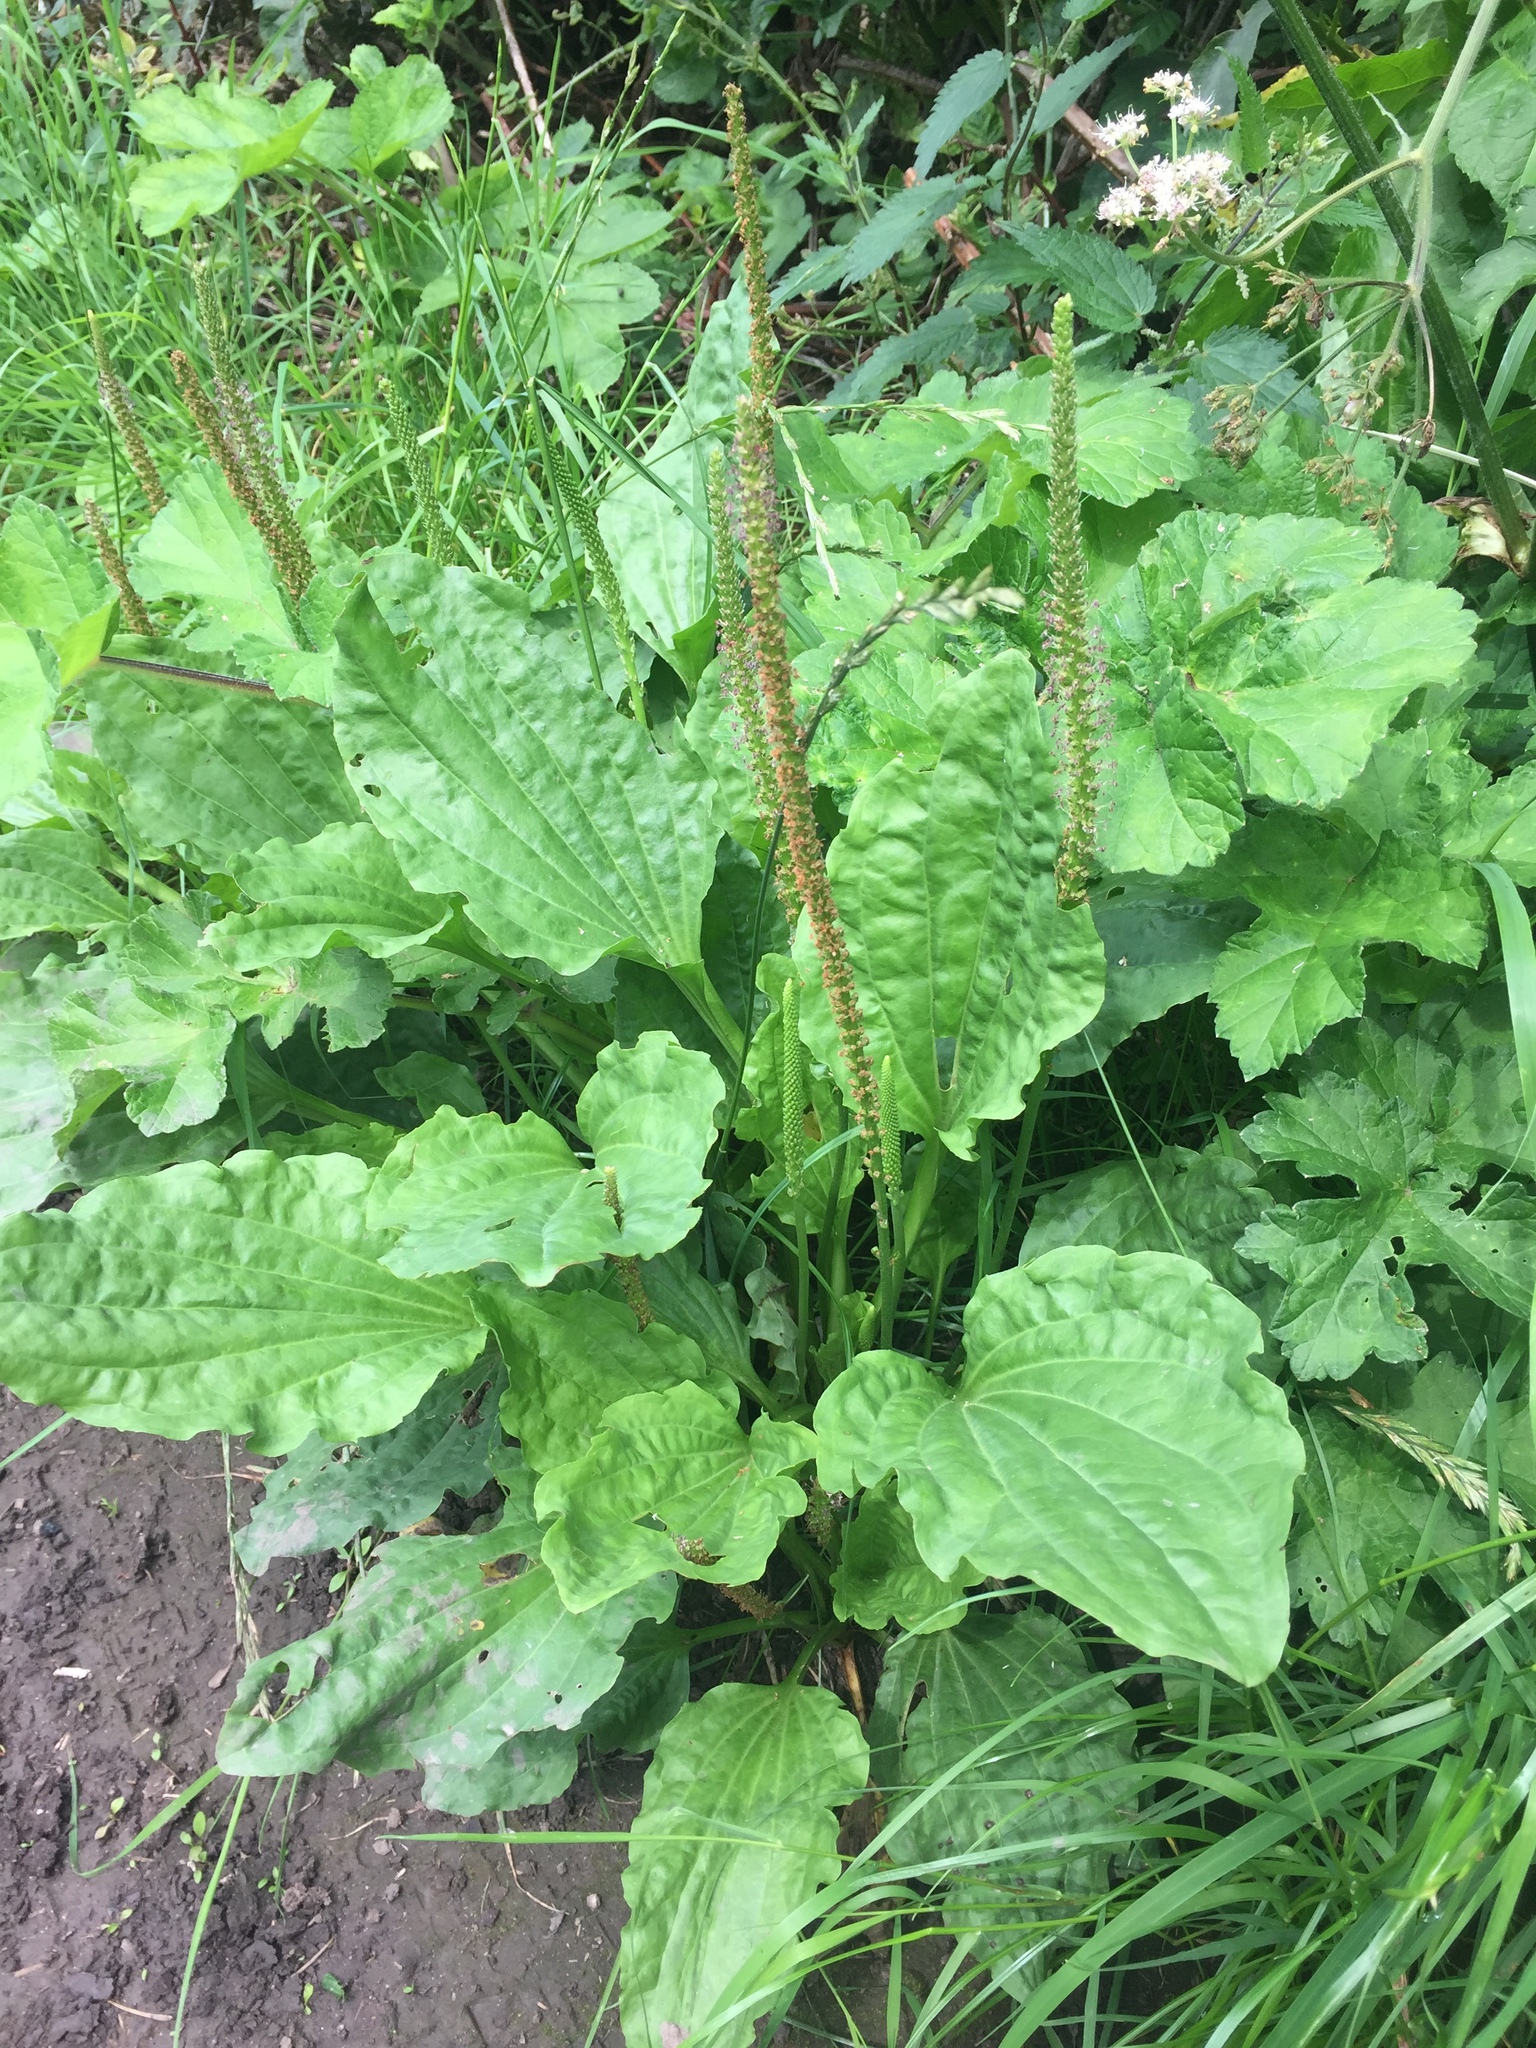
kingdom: Plantae
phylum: Tracheophyta
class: Magnoliopsida
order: Lamiales
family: Plantaginaceae
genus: Plantago
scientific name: Plantago major
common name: Common plantain
